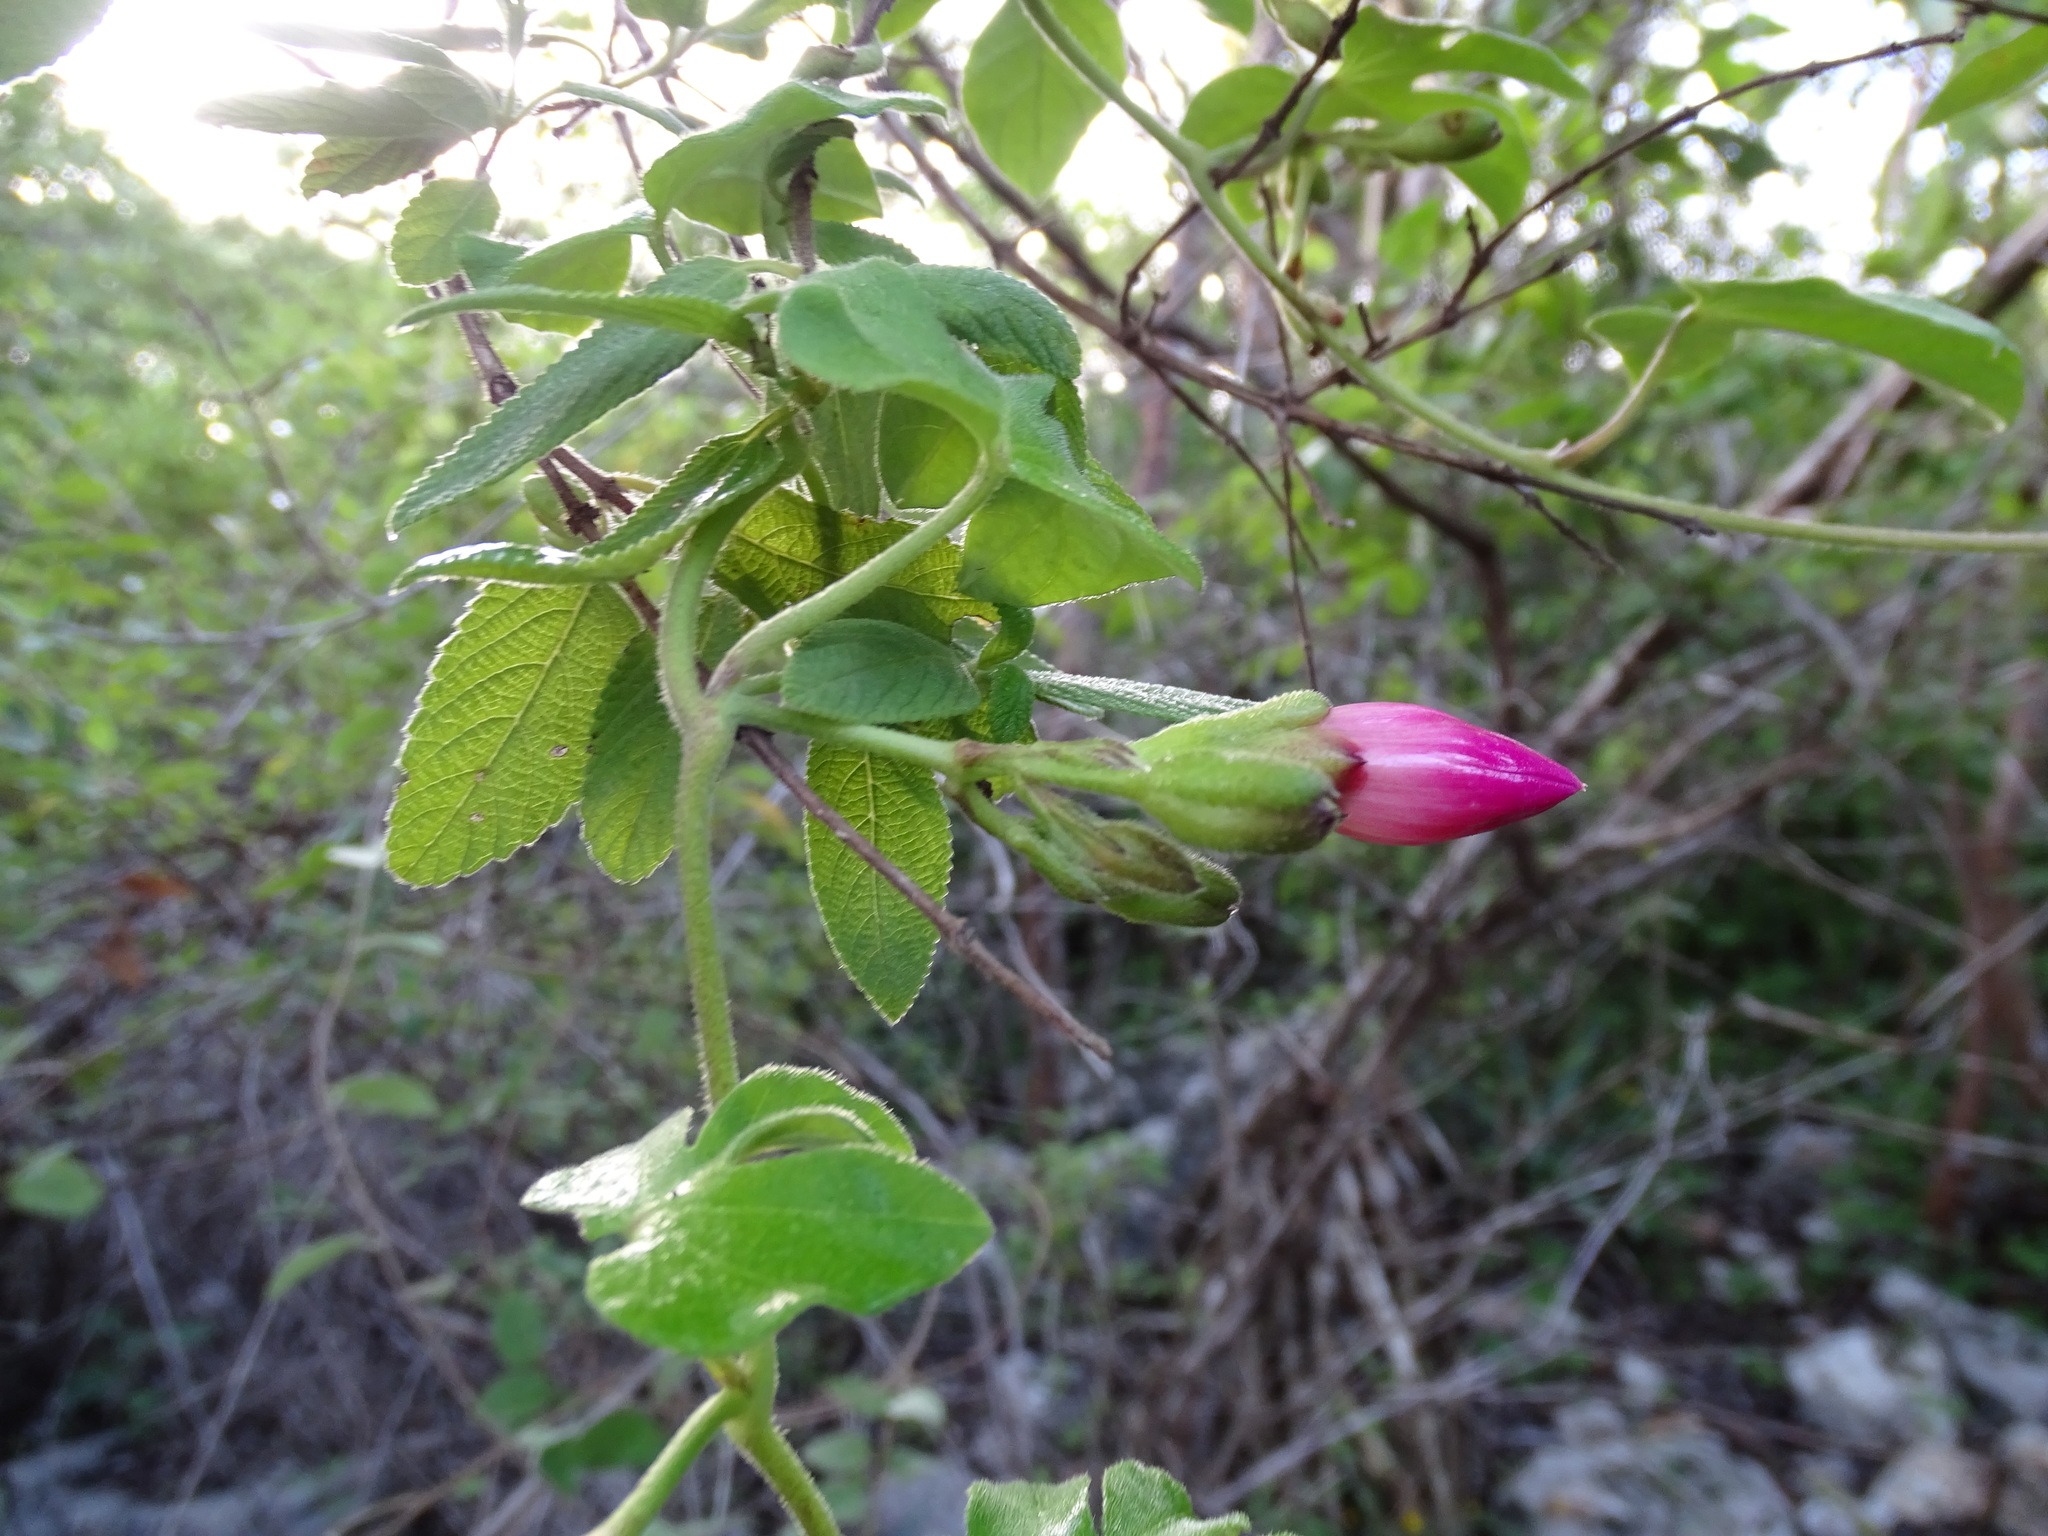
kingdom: Plantae
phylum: Tracheophyta
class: Magnoliopsida
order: Solanales
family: Convolvulaceae
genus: Ipomoea
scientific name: Ipomoea peteri
